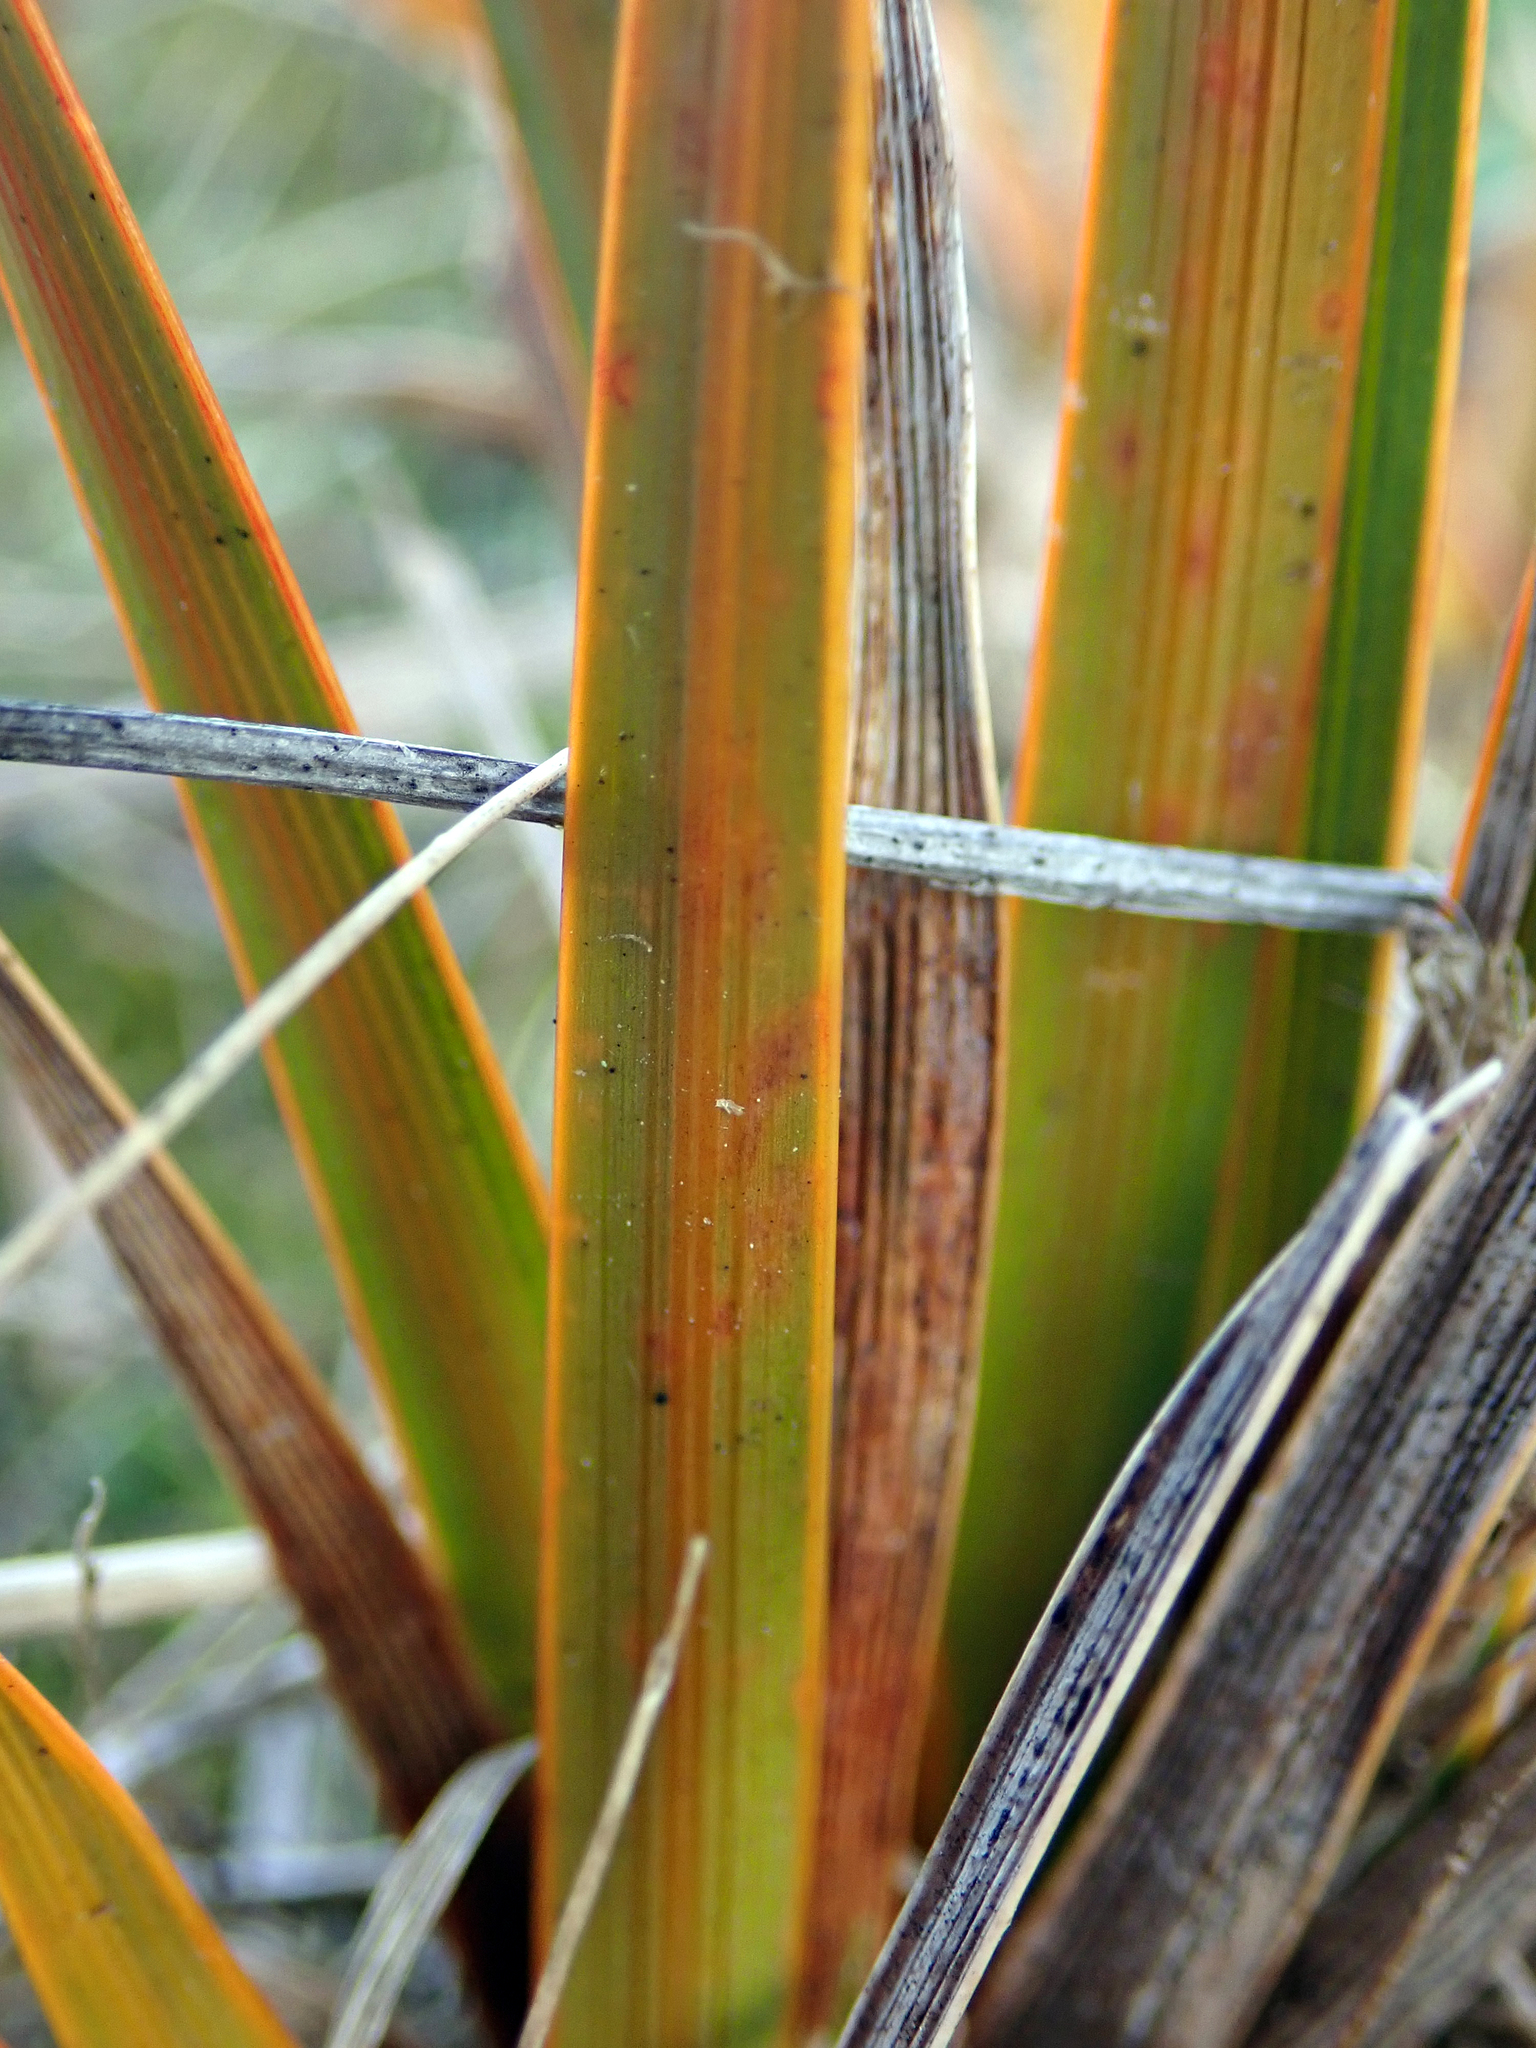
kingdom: Plantae
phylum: Tracheophyta
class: Liliopsida
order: Asparagales
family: Iridaceae
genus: Libertia
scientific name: Libertia peregrinans
